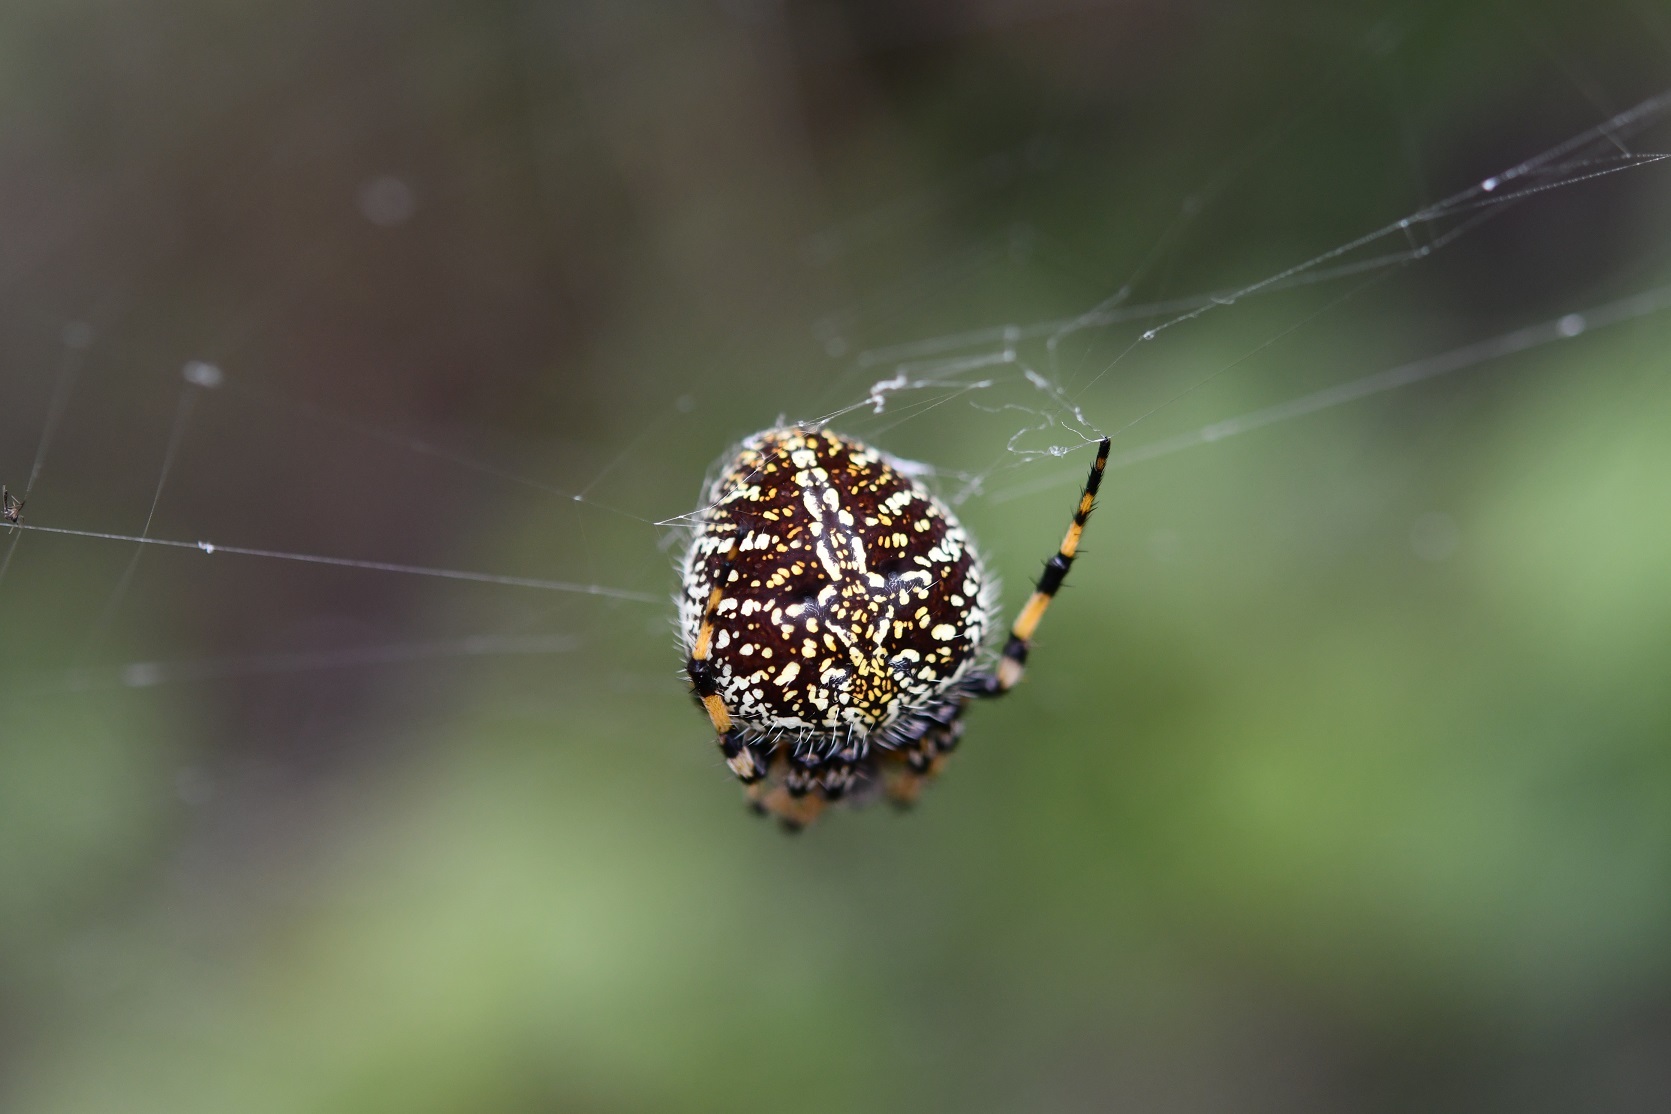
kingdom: Animalia
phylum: Arthropoda
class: Arachnida
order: Araneae
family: Araneidae
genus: Neoscona
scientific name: Neoscona orizabensis
